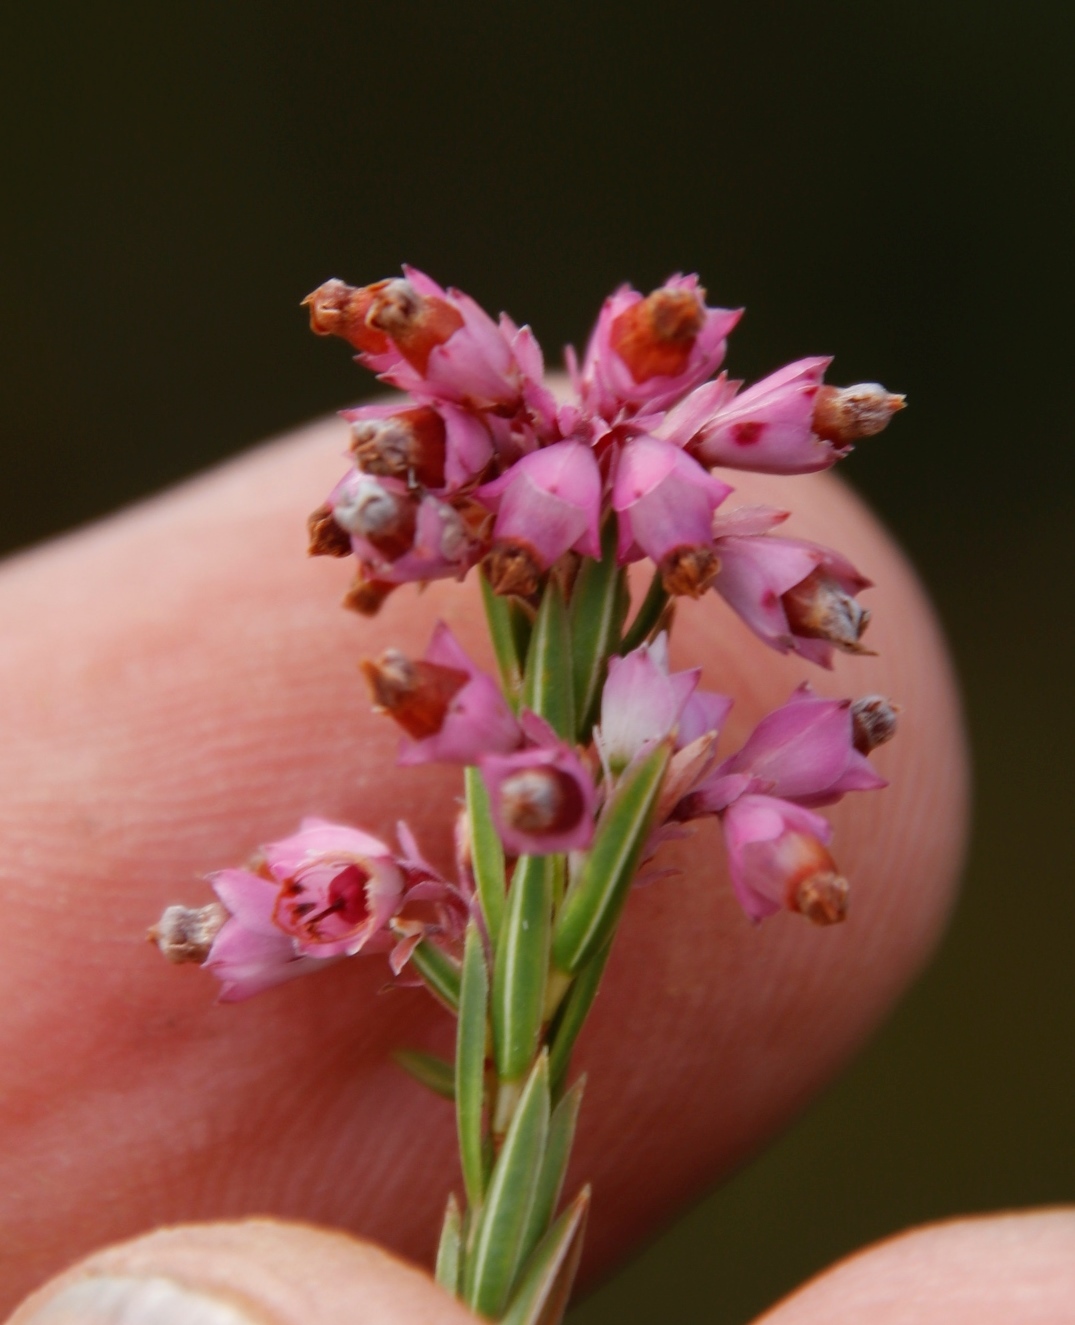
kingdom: Plantae
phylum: Tracheophyta
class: Magnoliopsida
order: Ericales
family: Ericaceae
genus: Erica
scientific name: Erica corifolia
